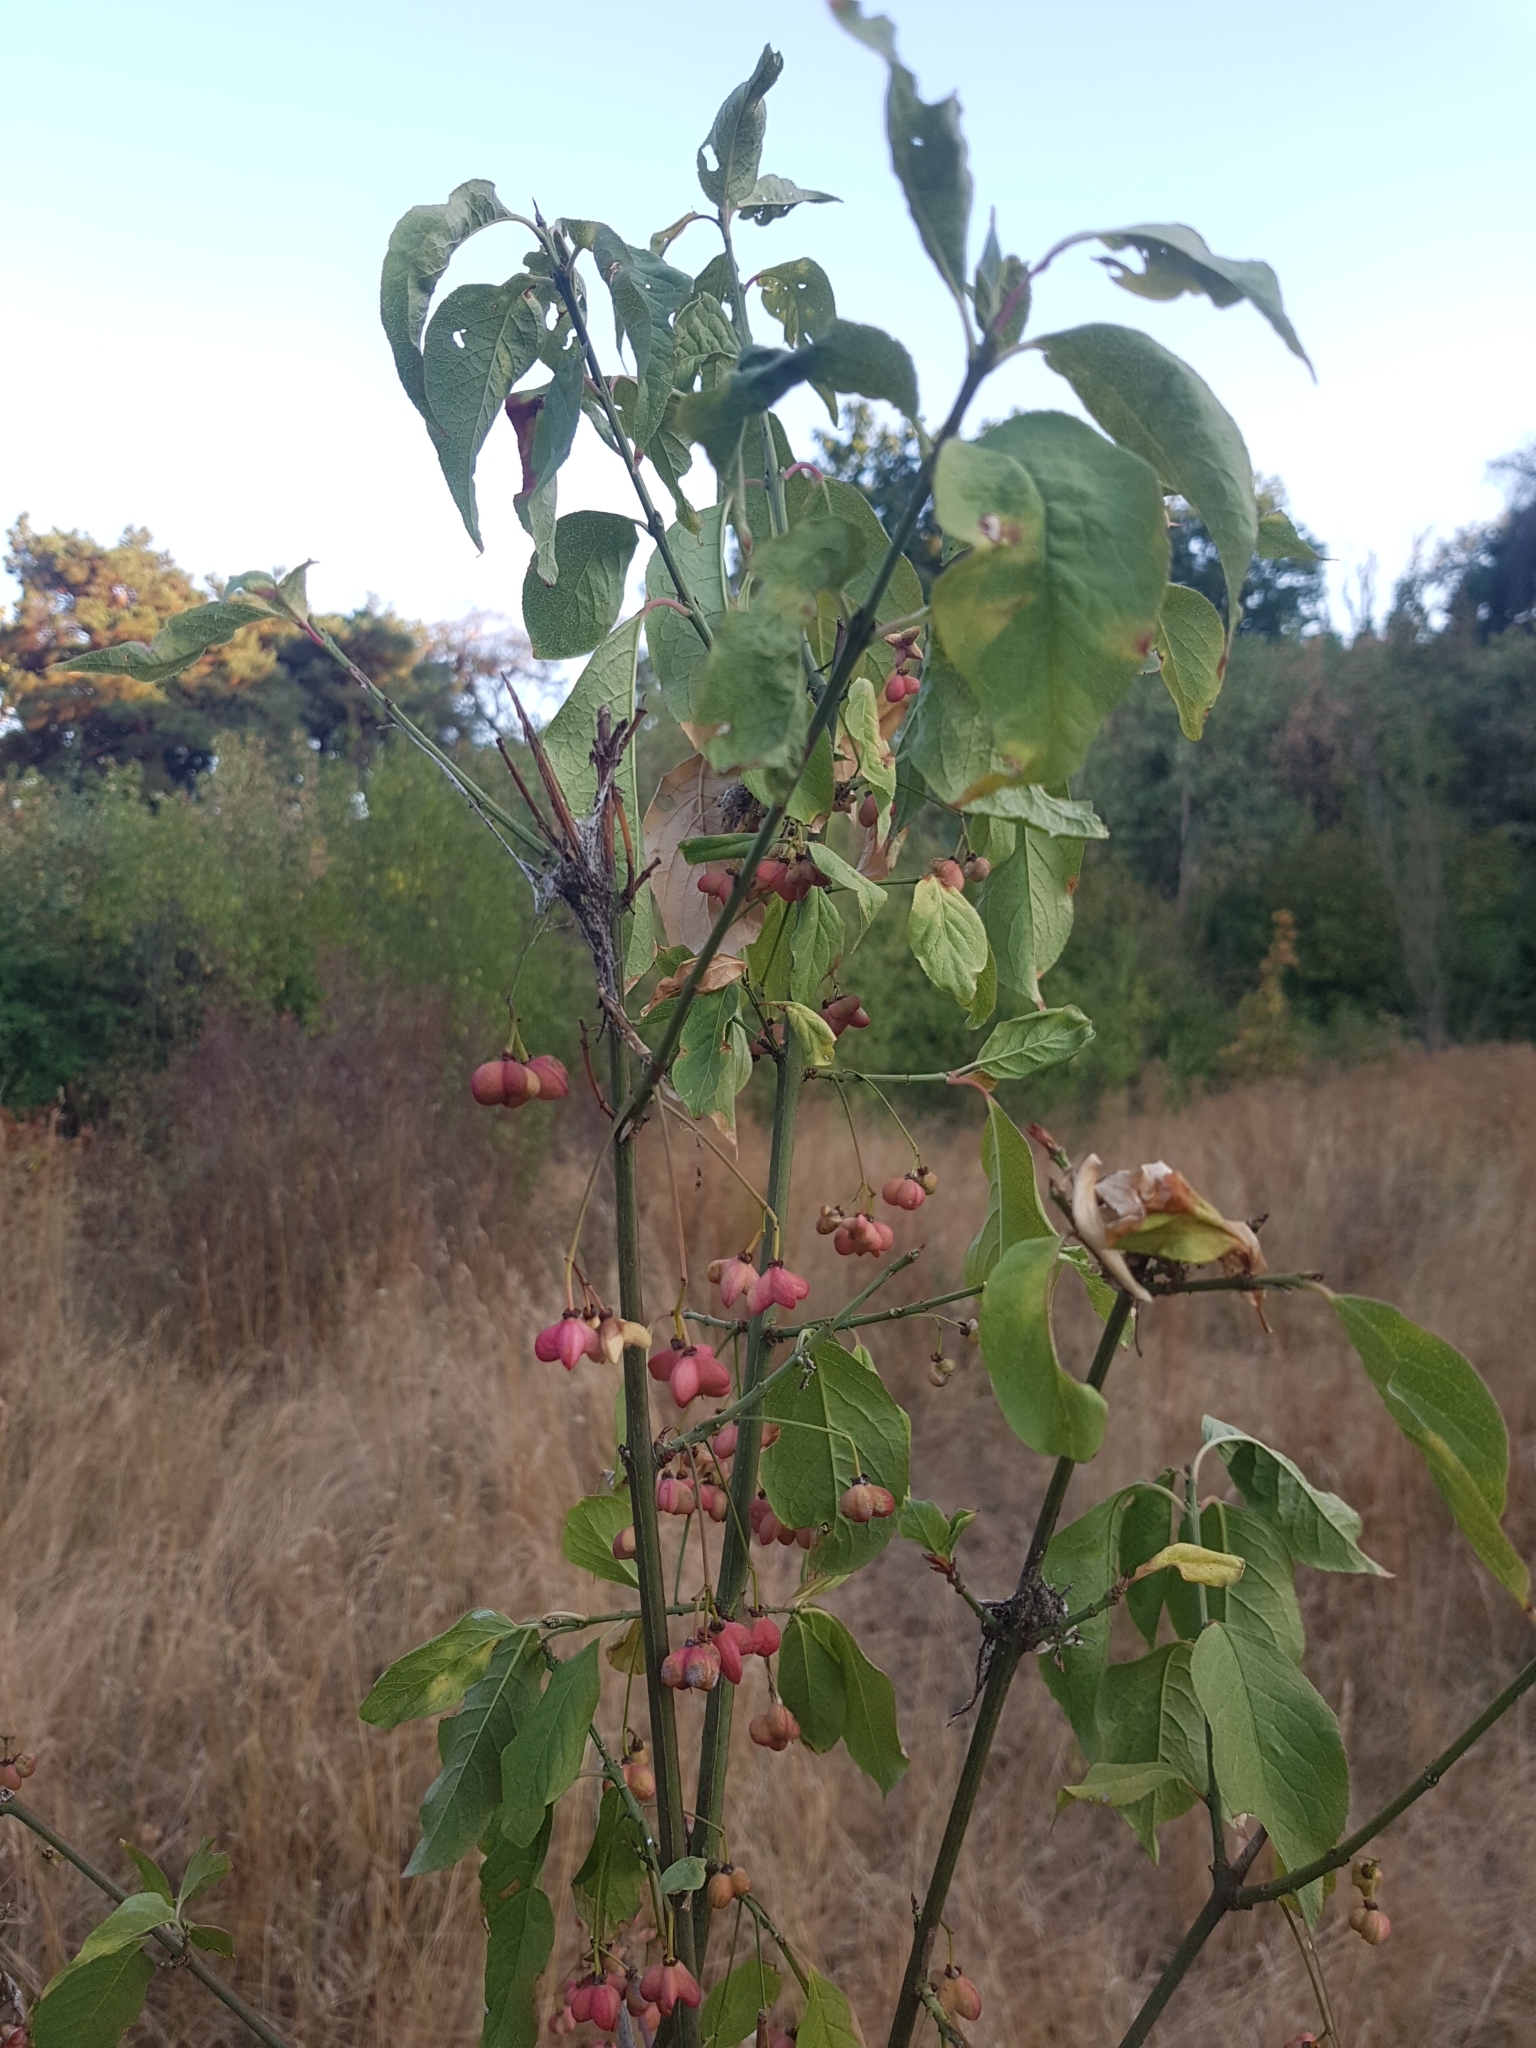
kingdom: Plantae
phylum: Tracheophyta
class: Magnoliopsida
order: Celastrales
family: Celastraceae
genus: Euonymus
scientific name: Euonymus europaeus
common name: Spindle
